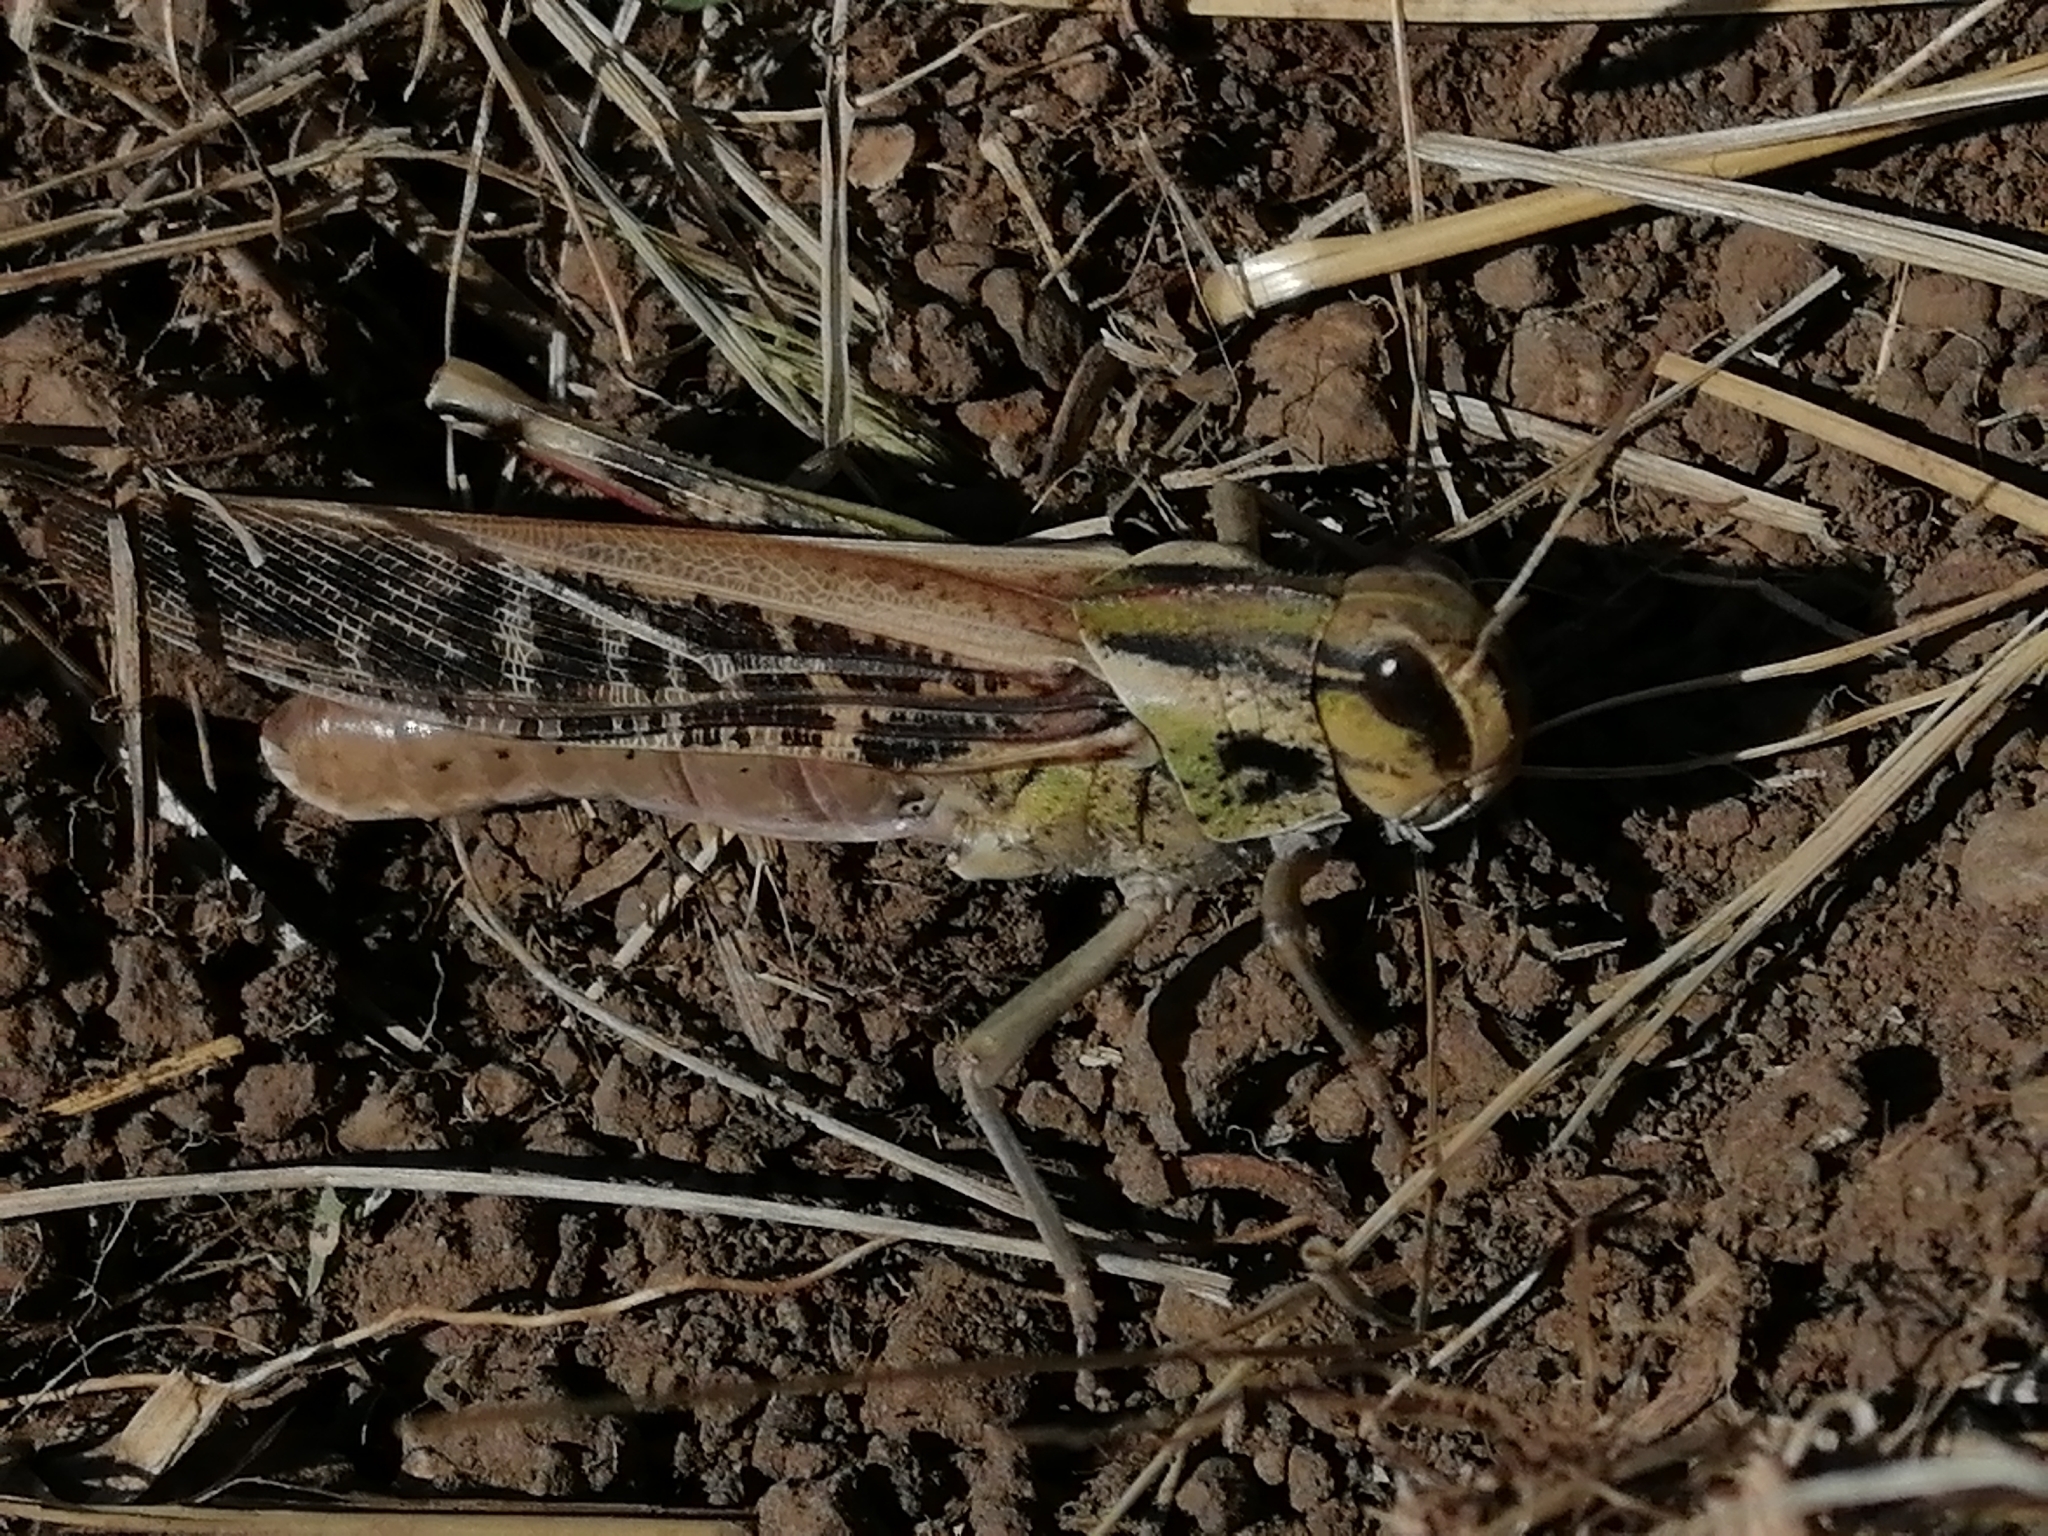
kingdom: Animalia
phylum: Arthropoda
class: Insecta
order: Orthoptera
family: Acrididae
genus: Locusta
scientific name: Locusta migratoria
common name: Migratory locust
